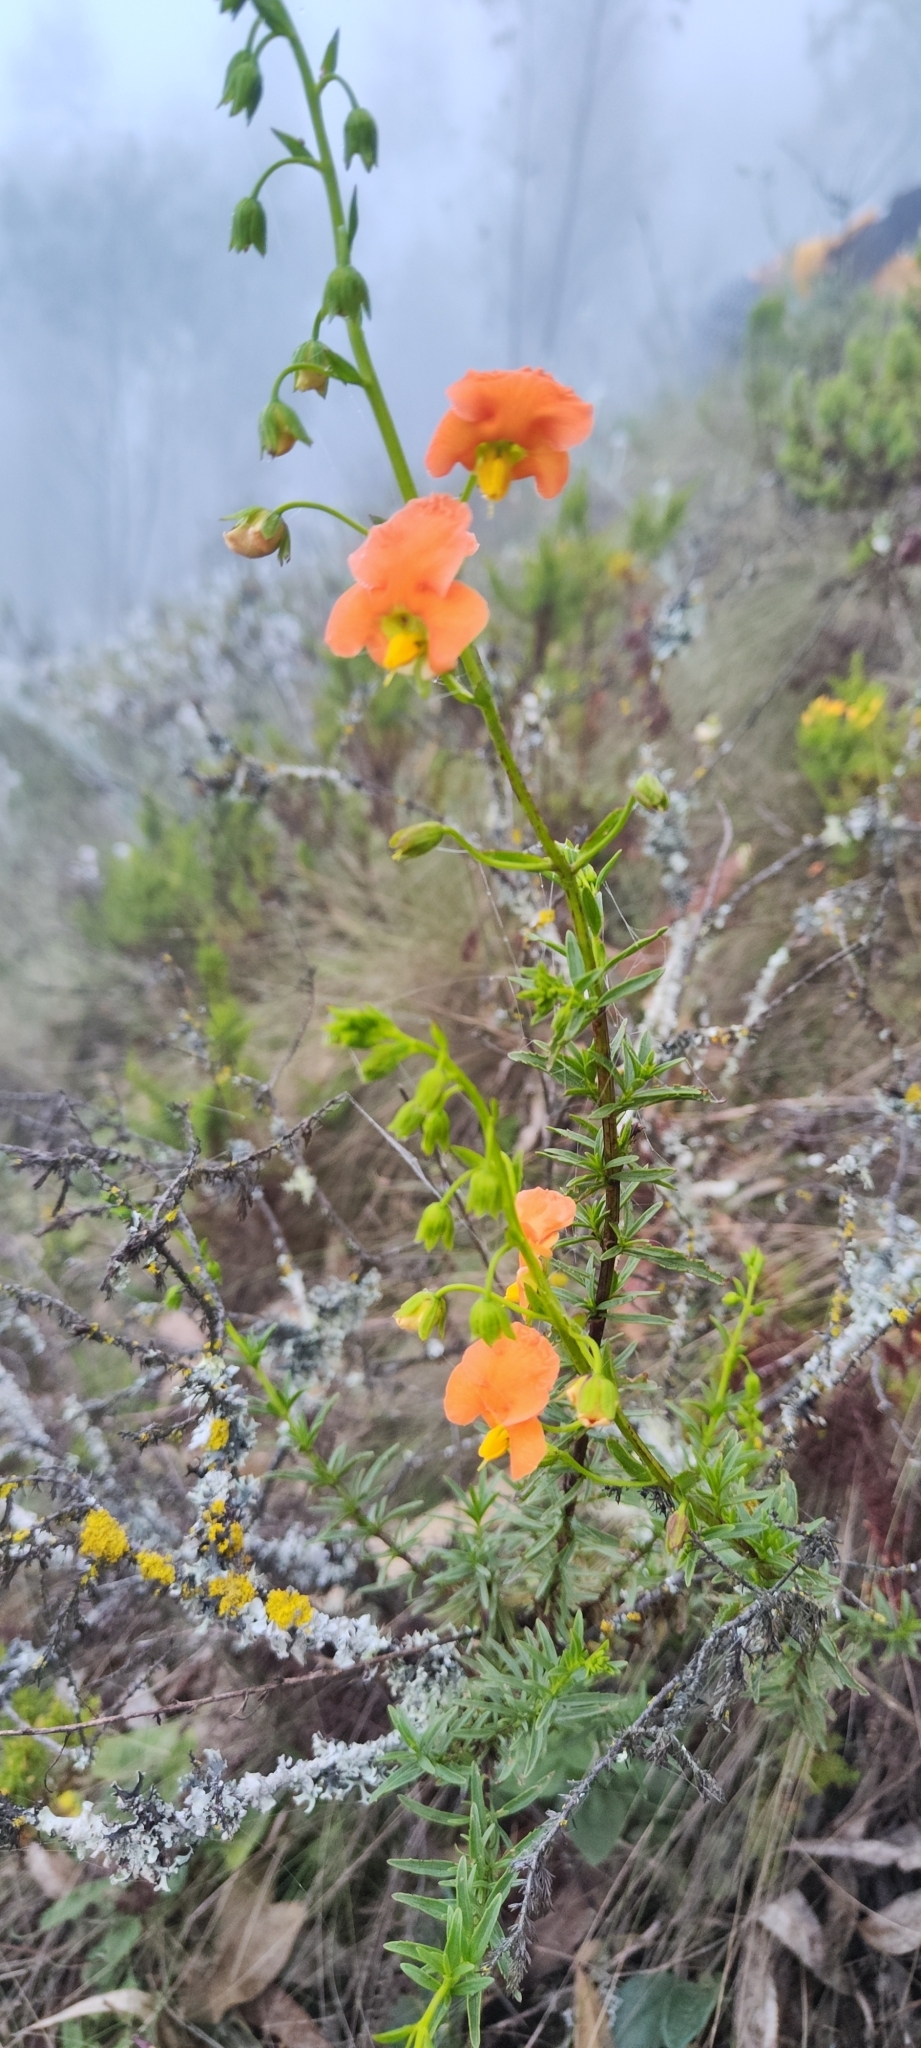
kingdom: Plantae
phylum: Tracheophyta
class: Magnoliopsida
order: Lamiales
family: Scrophulariaceae
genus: Alonsoa
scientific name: Alonsoa linearis
